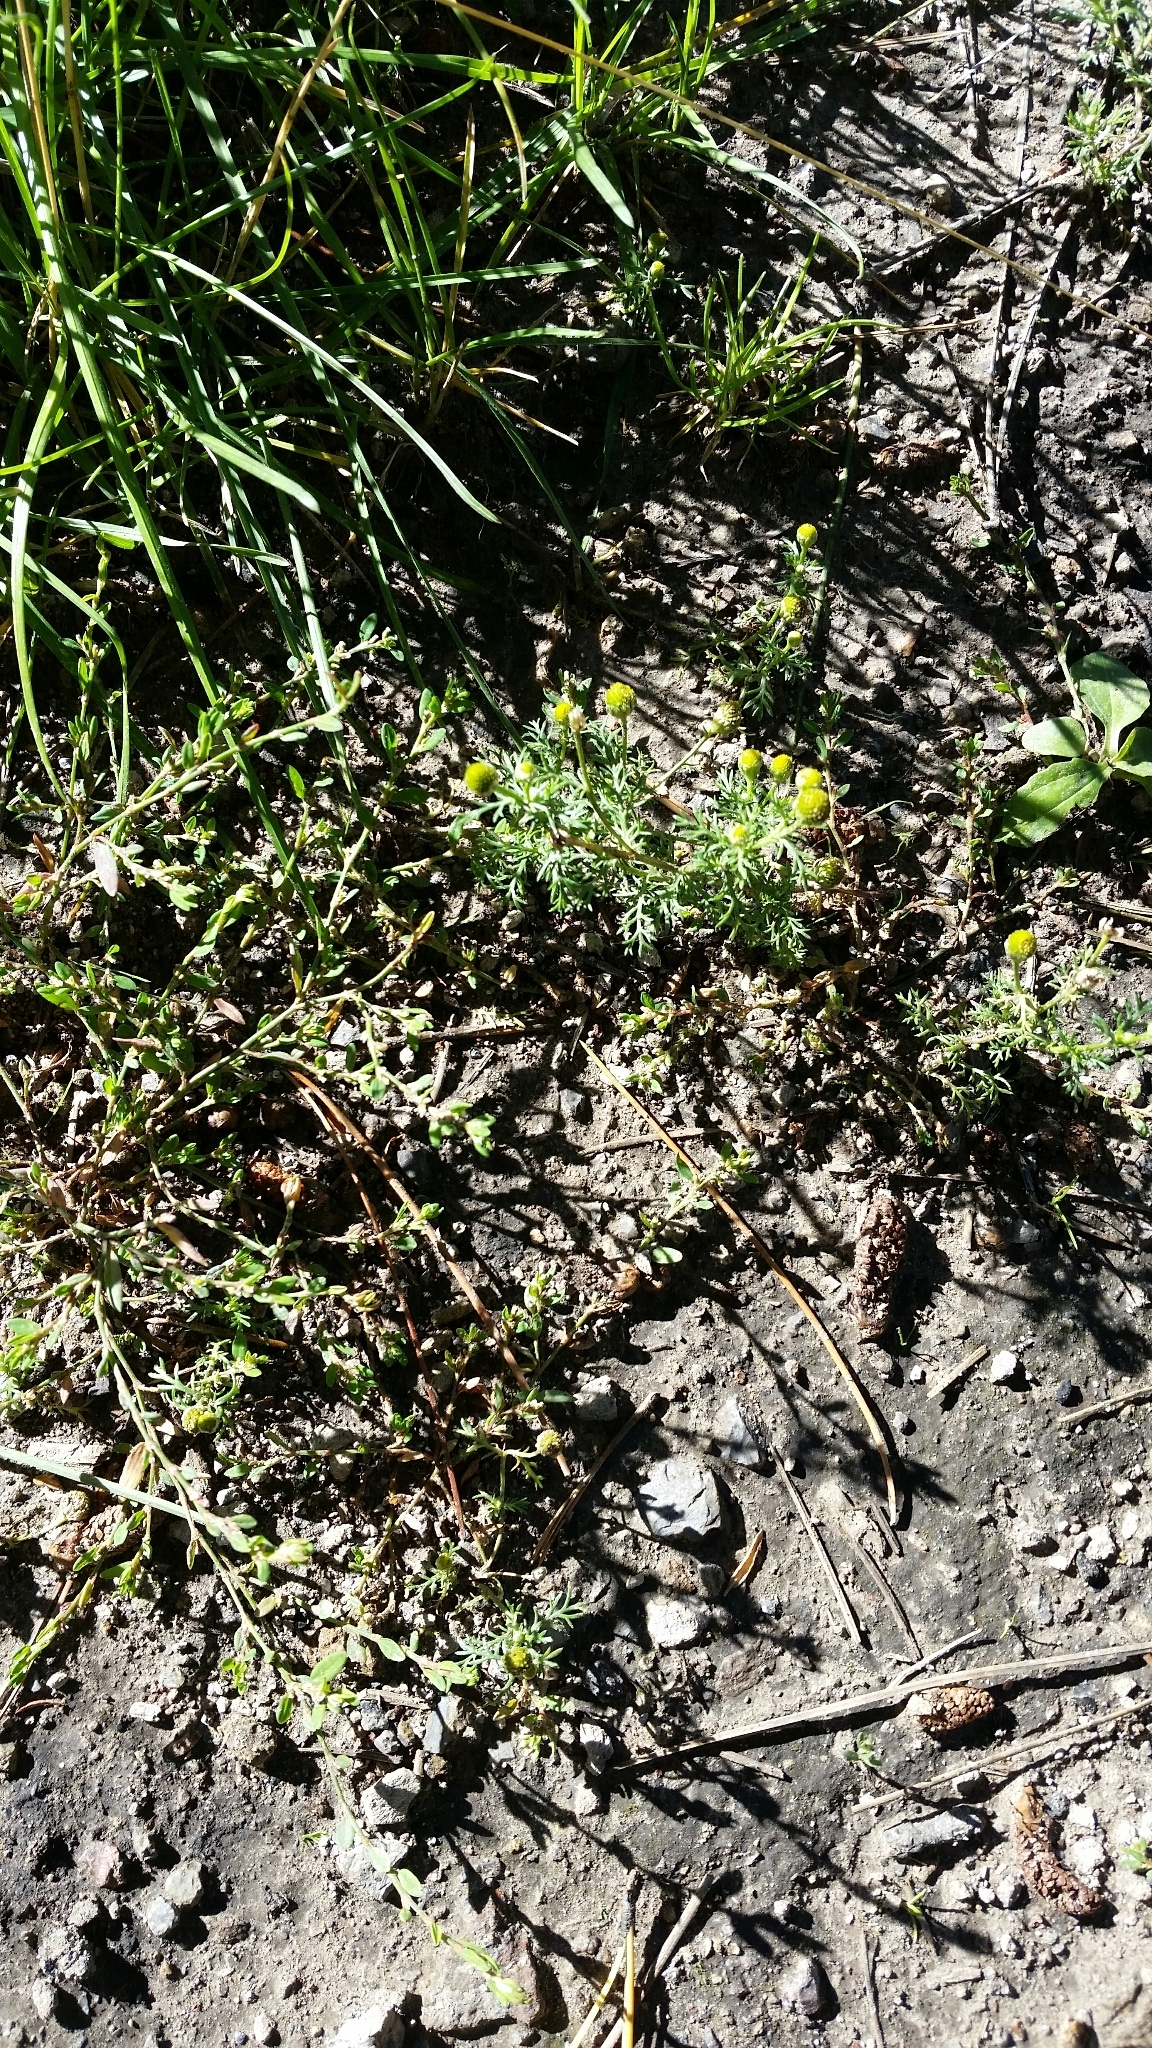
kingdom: Plantae
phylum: Tracheophyta
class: Magnoliopsida
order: Asterales
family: Asteraceae
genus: Matricaria
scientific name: Matricaria discoidea
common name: Disc mayweed
